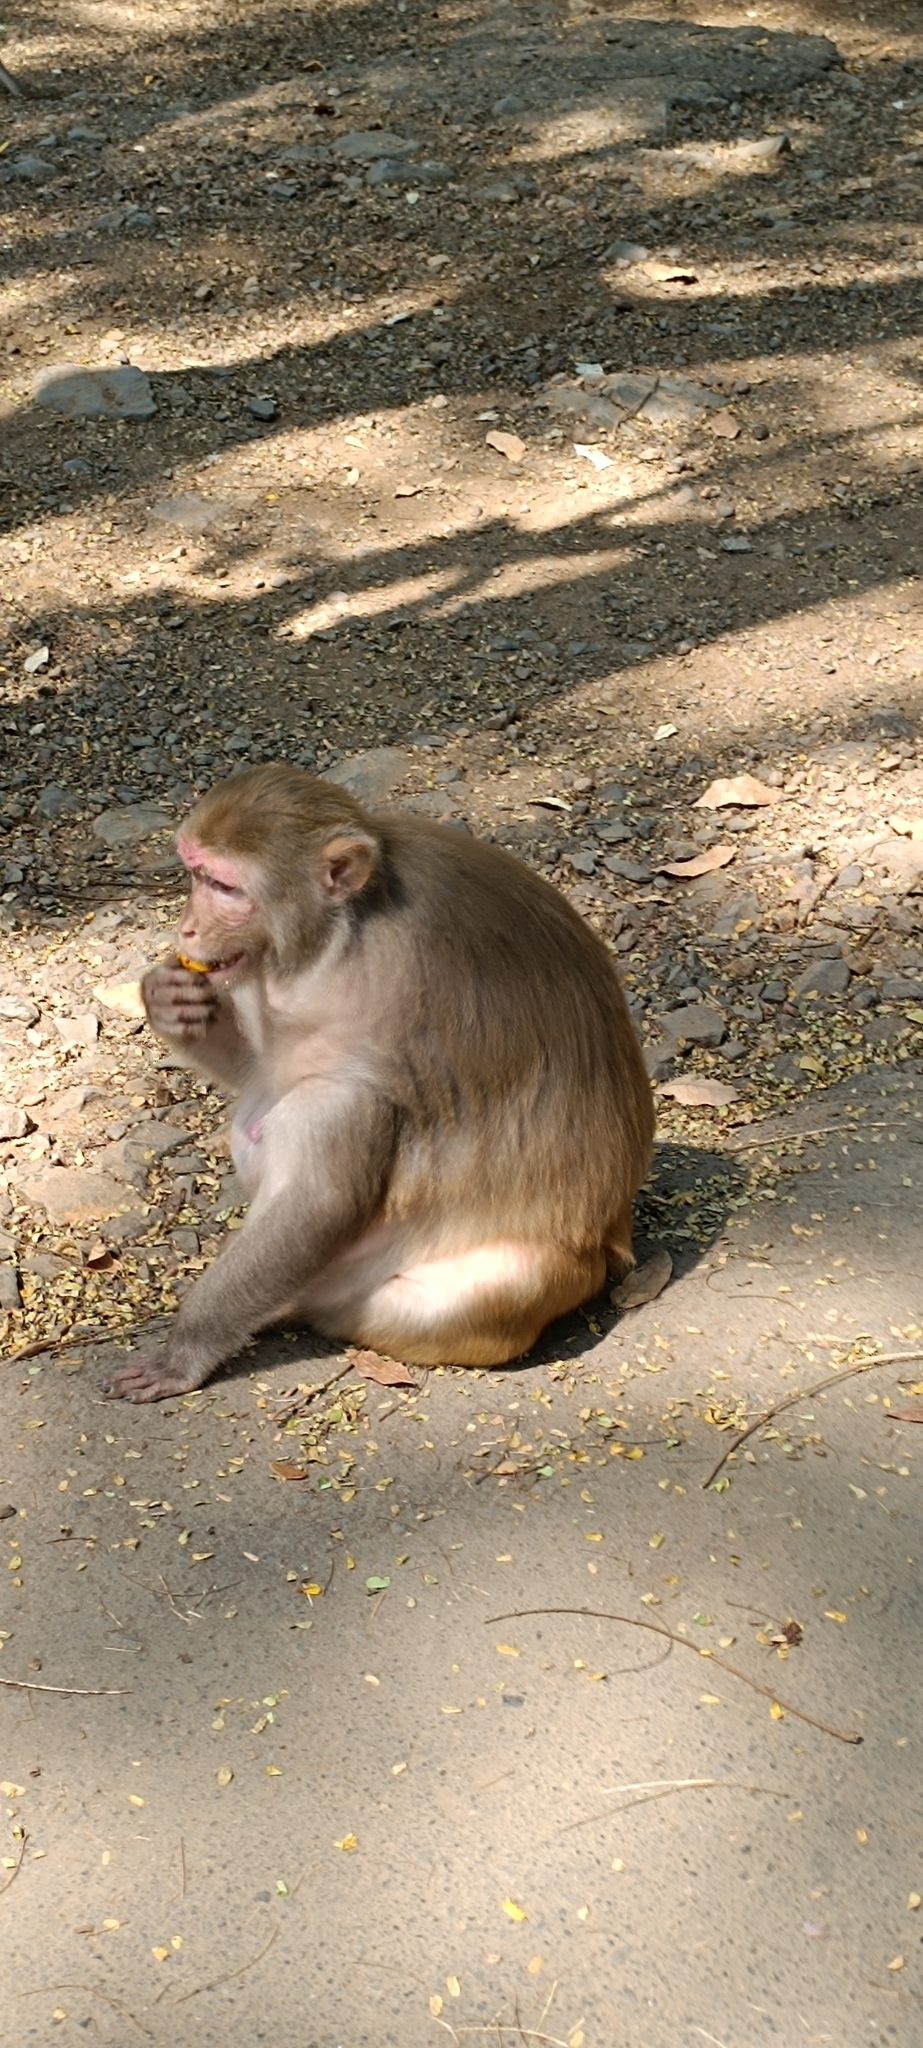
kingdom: Animalia
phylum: Chordata
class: Mammalia
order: Primates
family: Cercopithecidae
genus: Macaca
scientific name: Macaca radiata
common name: Bonnet macaque
